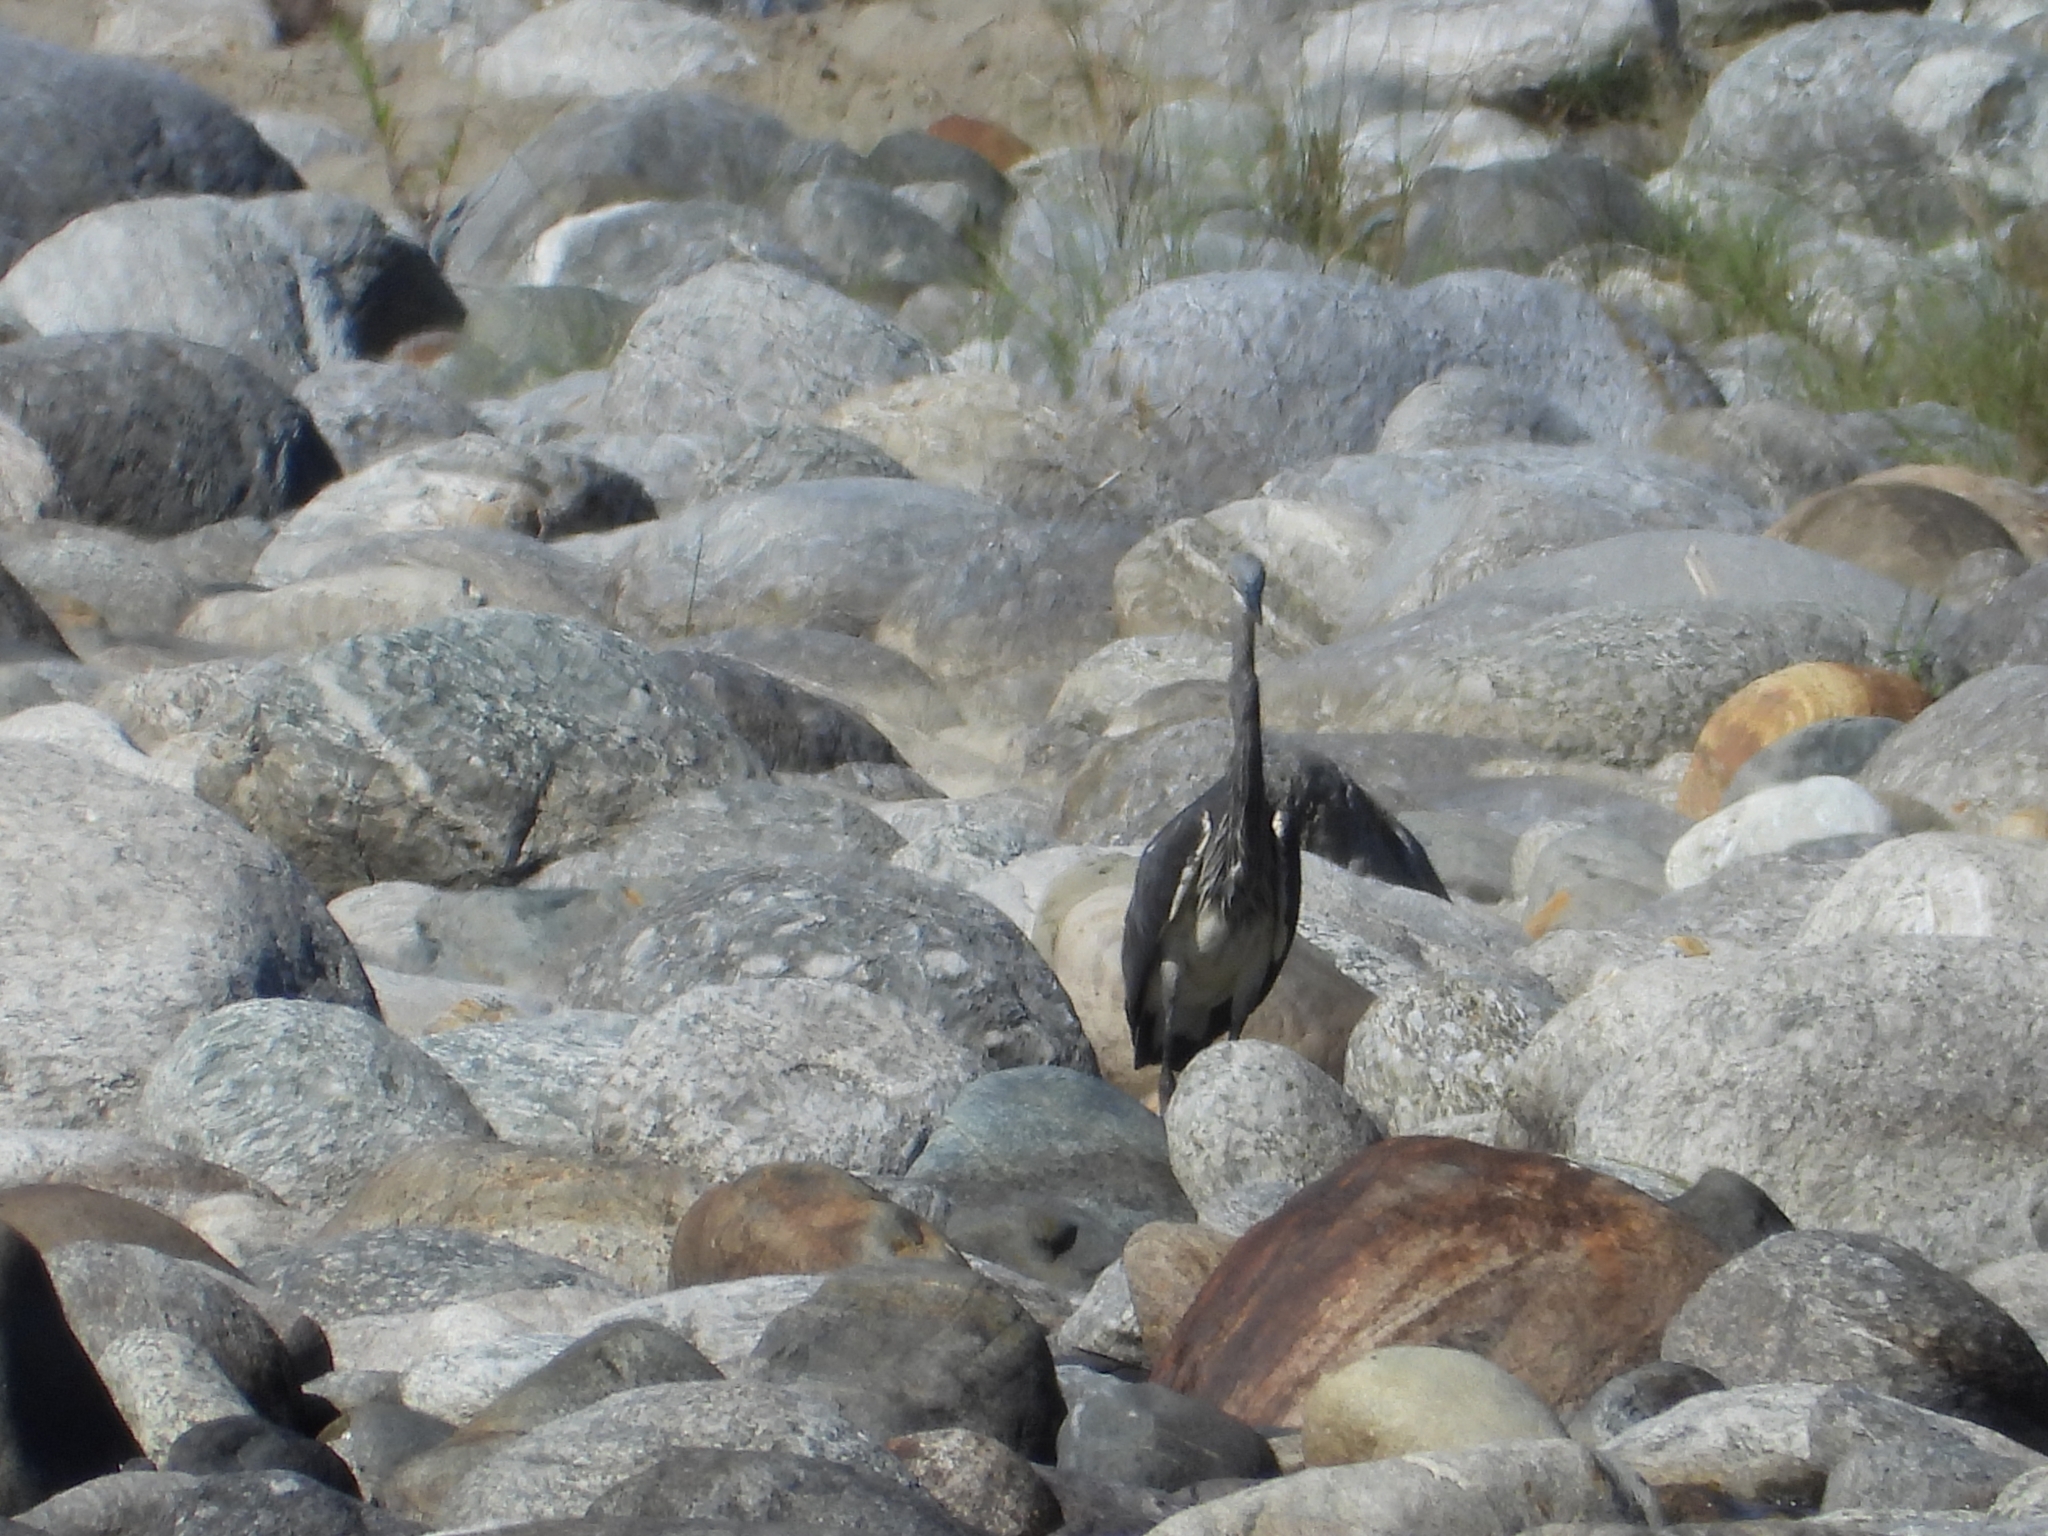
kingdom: Animalia
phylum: Chordata
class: Aves
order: Pelecaniformes
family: Ardeidae
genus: Ardea
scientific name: Ardea insignis
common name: White-bellied heron
